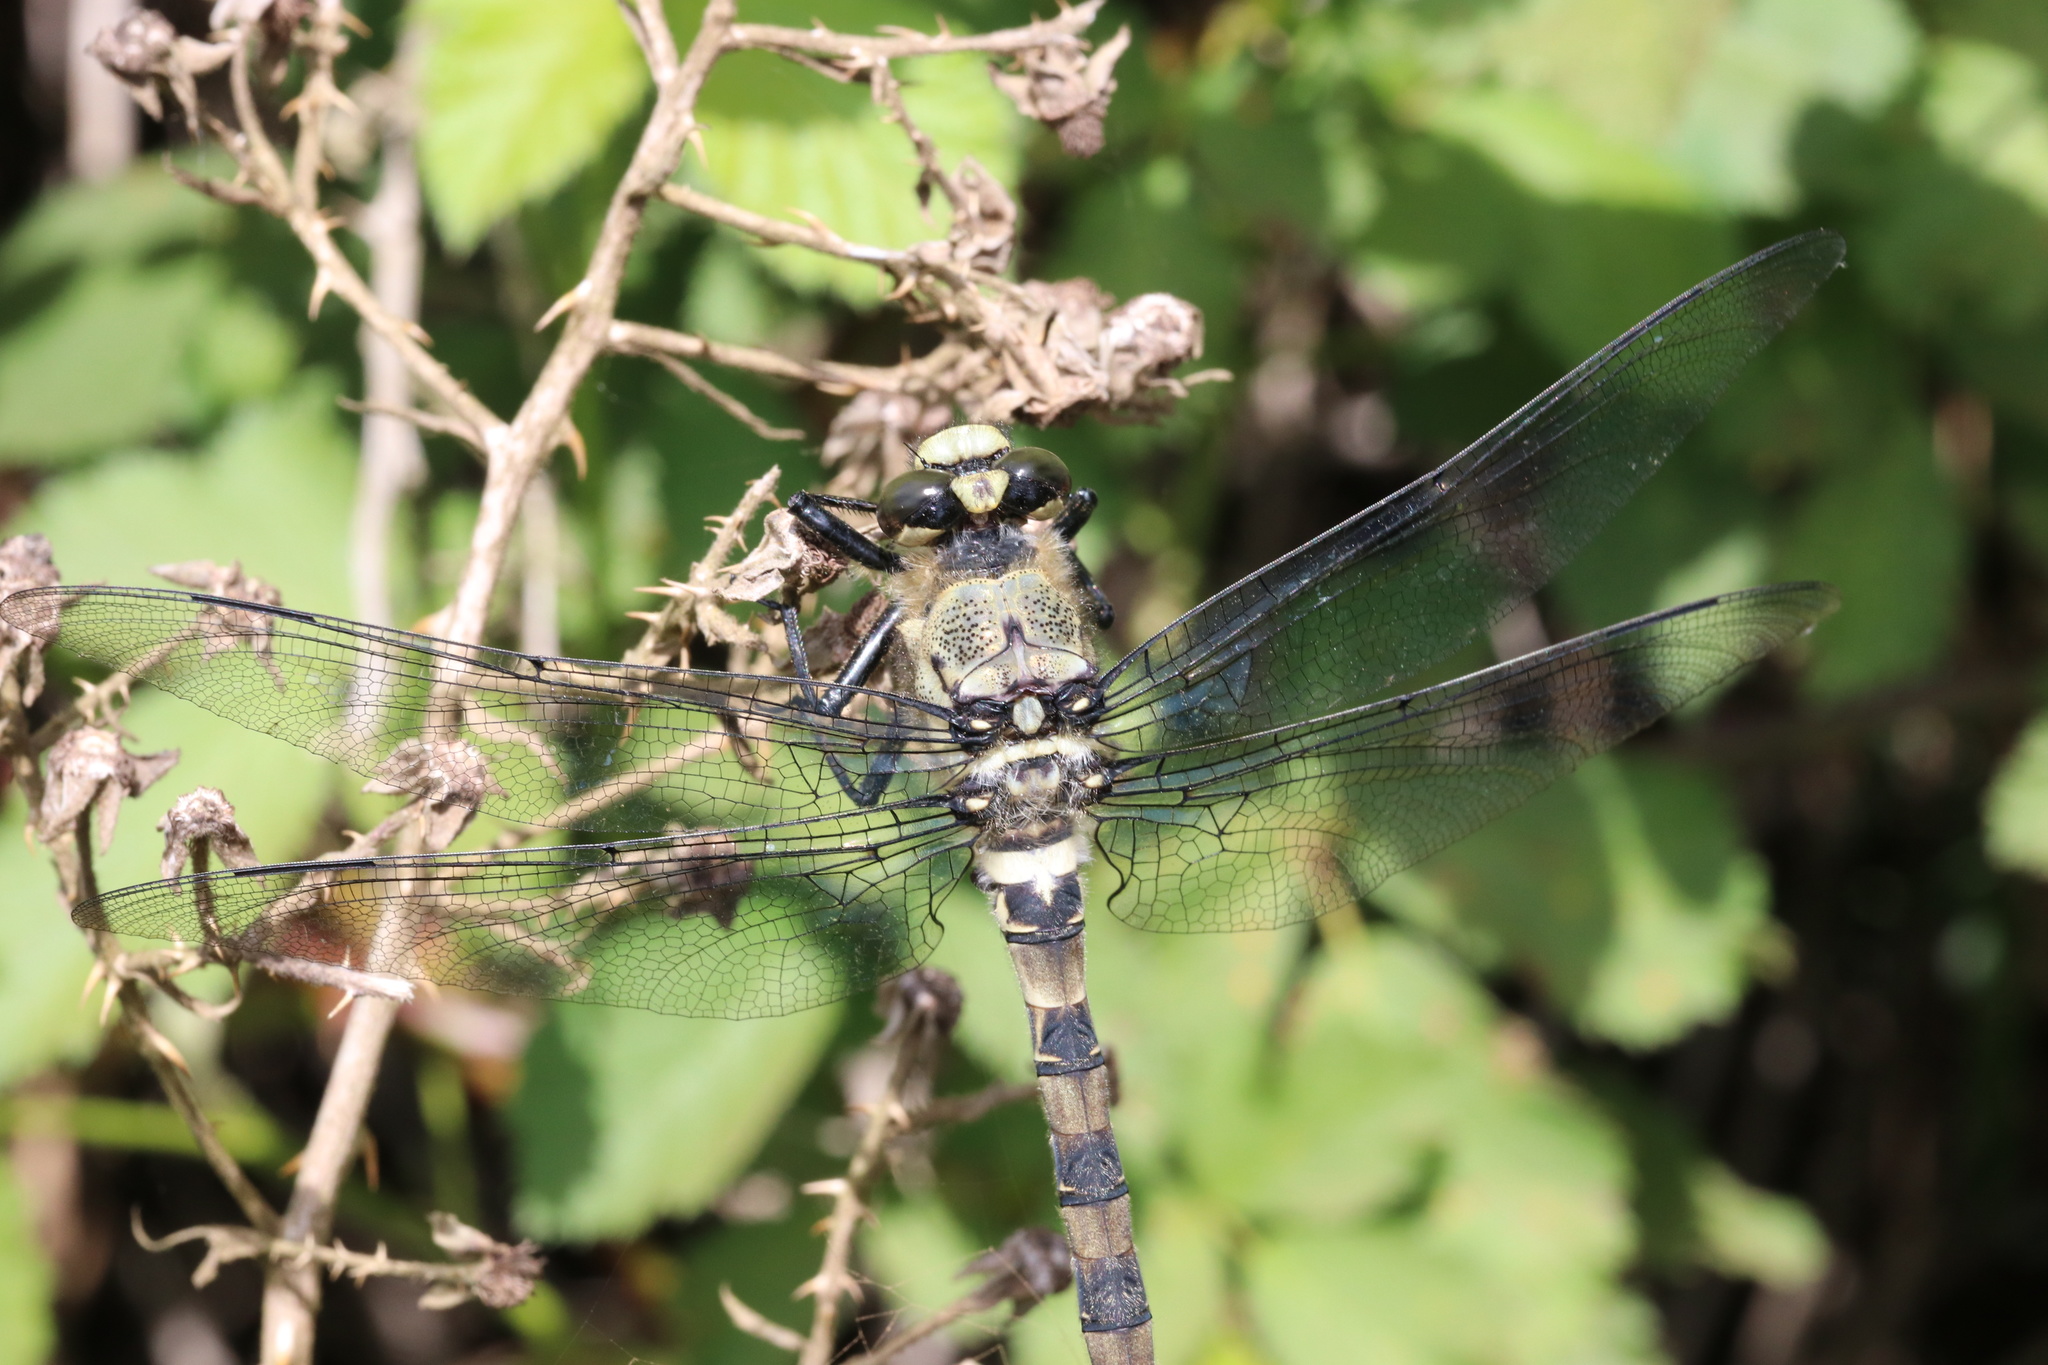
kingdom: Animalia
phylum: Arthropoda
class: Insecta
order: Odonata
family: Petaluridae
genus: Phenes
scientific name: Phenes raptor
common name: Chilean petaltail
